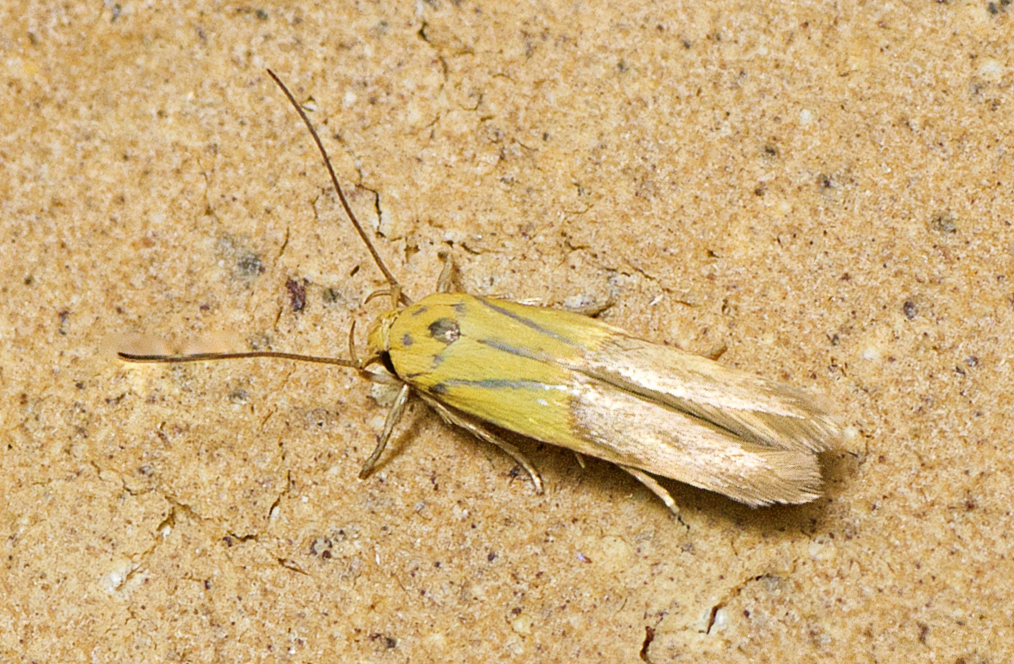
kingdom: Animalia
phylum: Arthropoda
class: Insecta
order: Lepidoptera
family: Stathmopodidae
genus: Stathmopoda
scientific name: Stathmopoda auriferella
